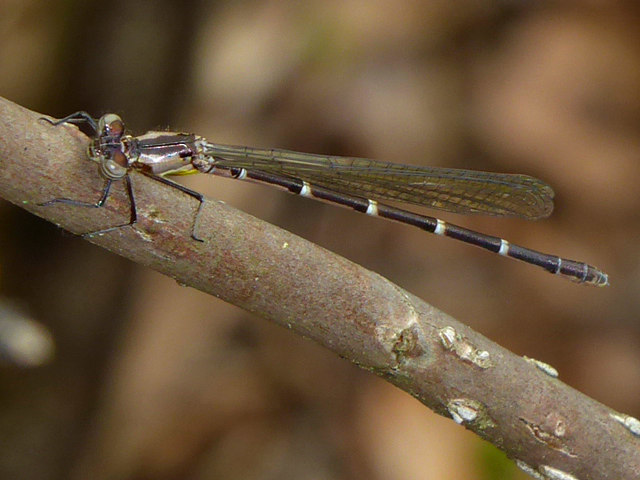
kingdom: Animalia
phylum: Arthropoda
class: Insecta
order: Odonata
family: Coenagrionidae
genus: Chromagrion
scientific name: Chromagrion conditum
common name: Aurora damsel
